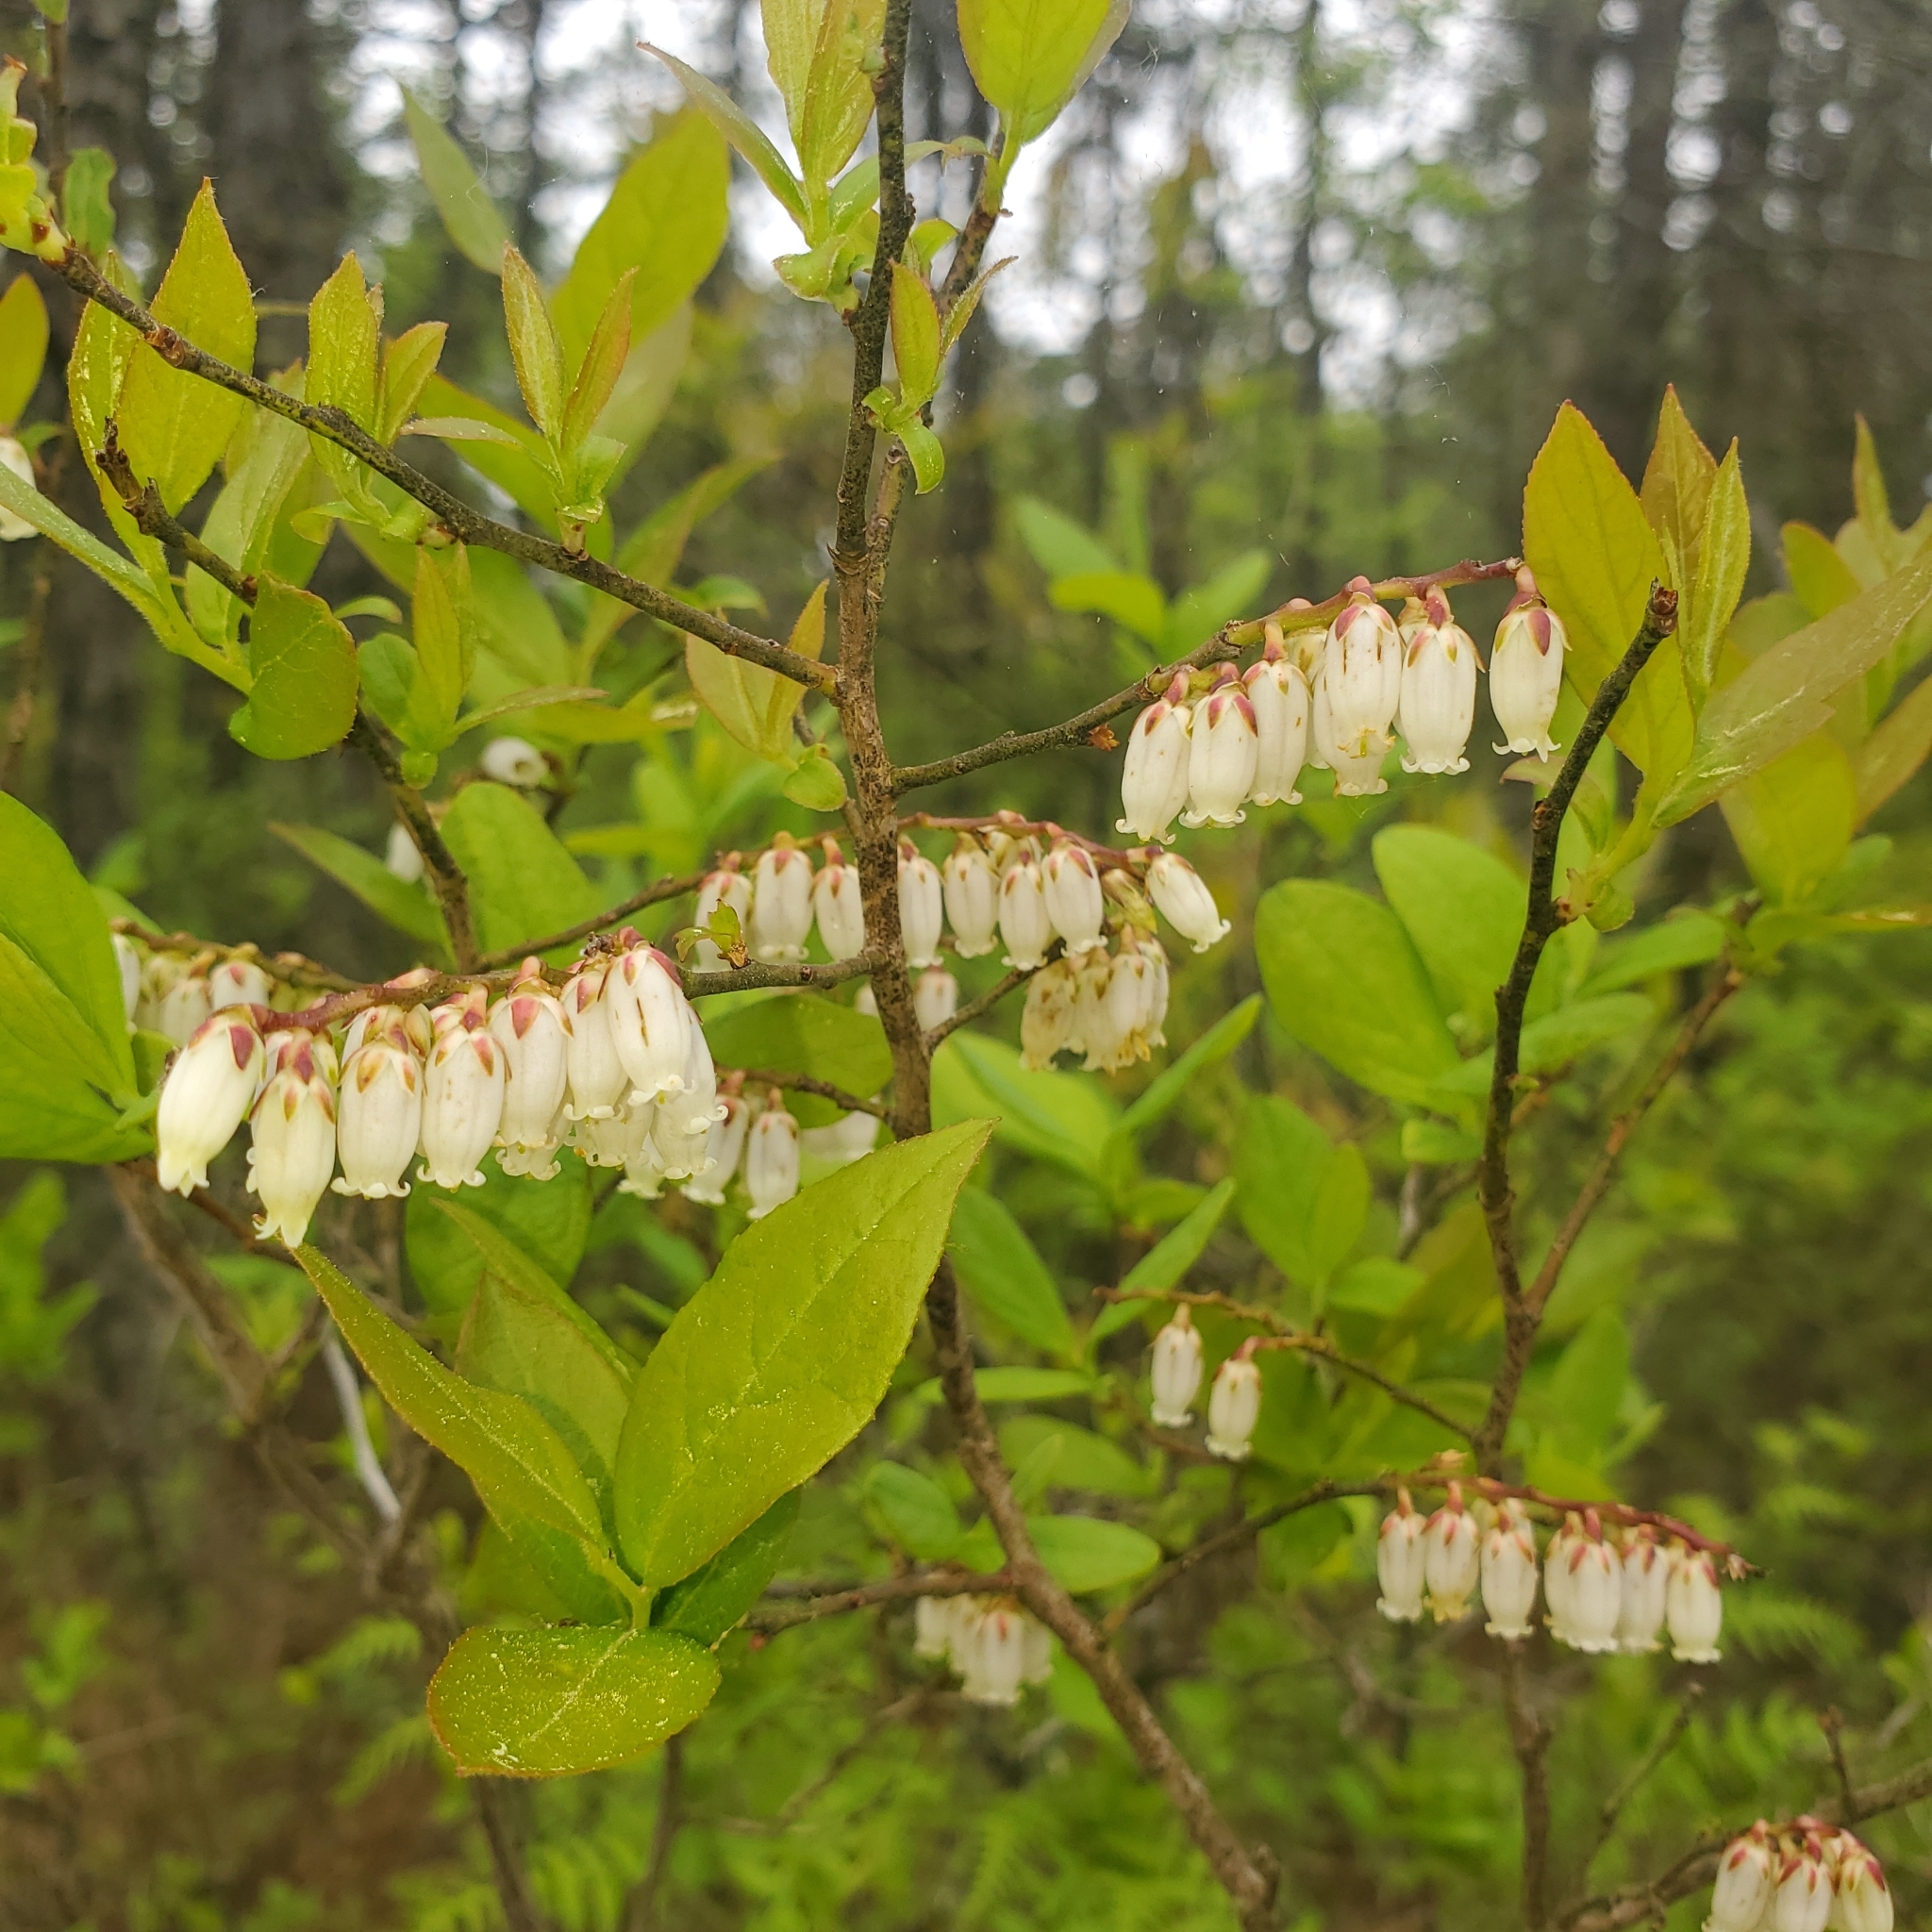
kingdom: Plantae
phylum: Tracheophyta
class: Magnoliopsida
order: Ericales
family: Ericaceae
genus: Eubotrys
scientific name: Eubotrys racemosa
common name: Fetterbush
